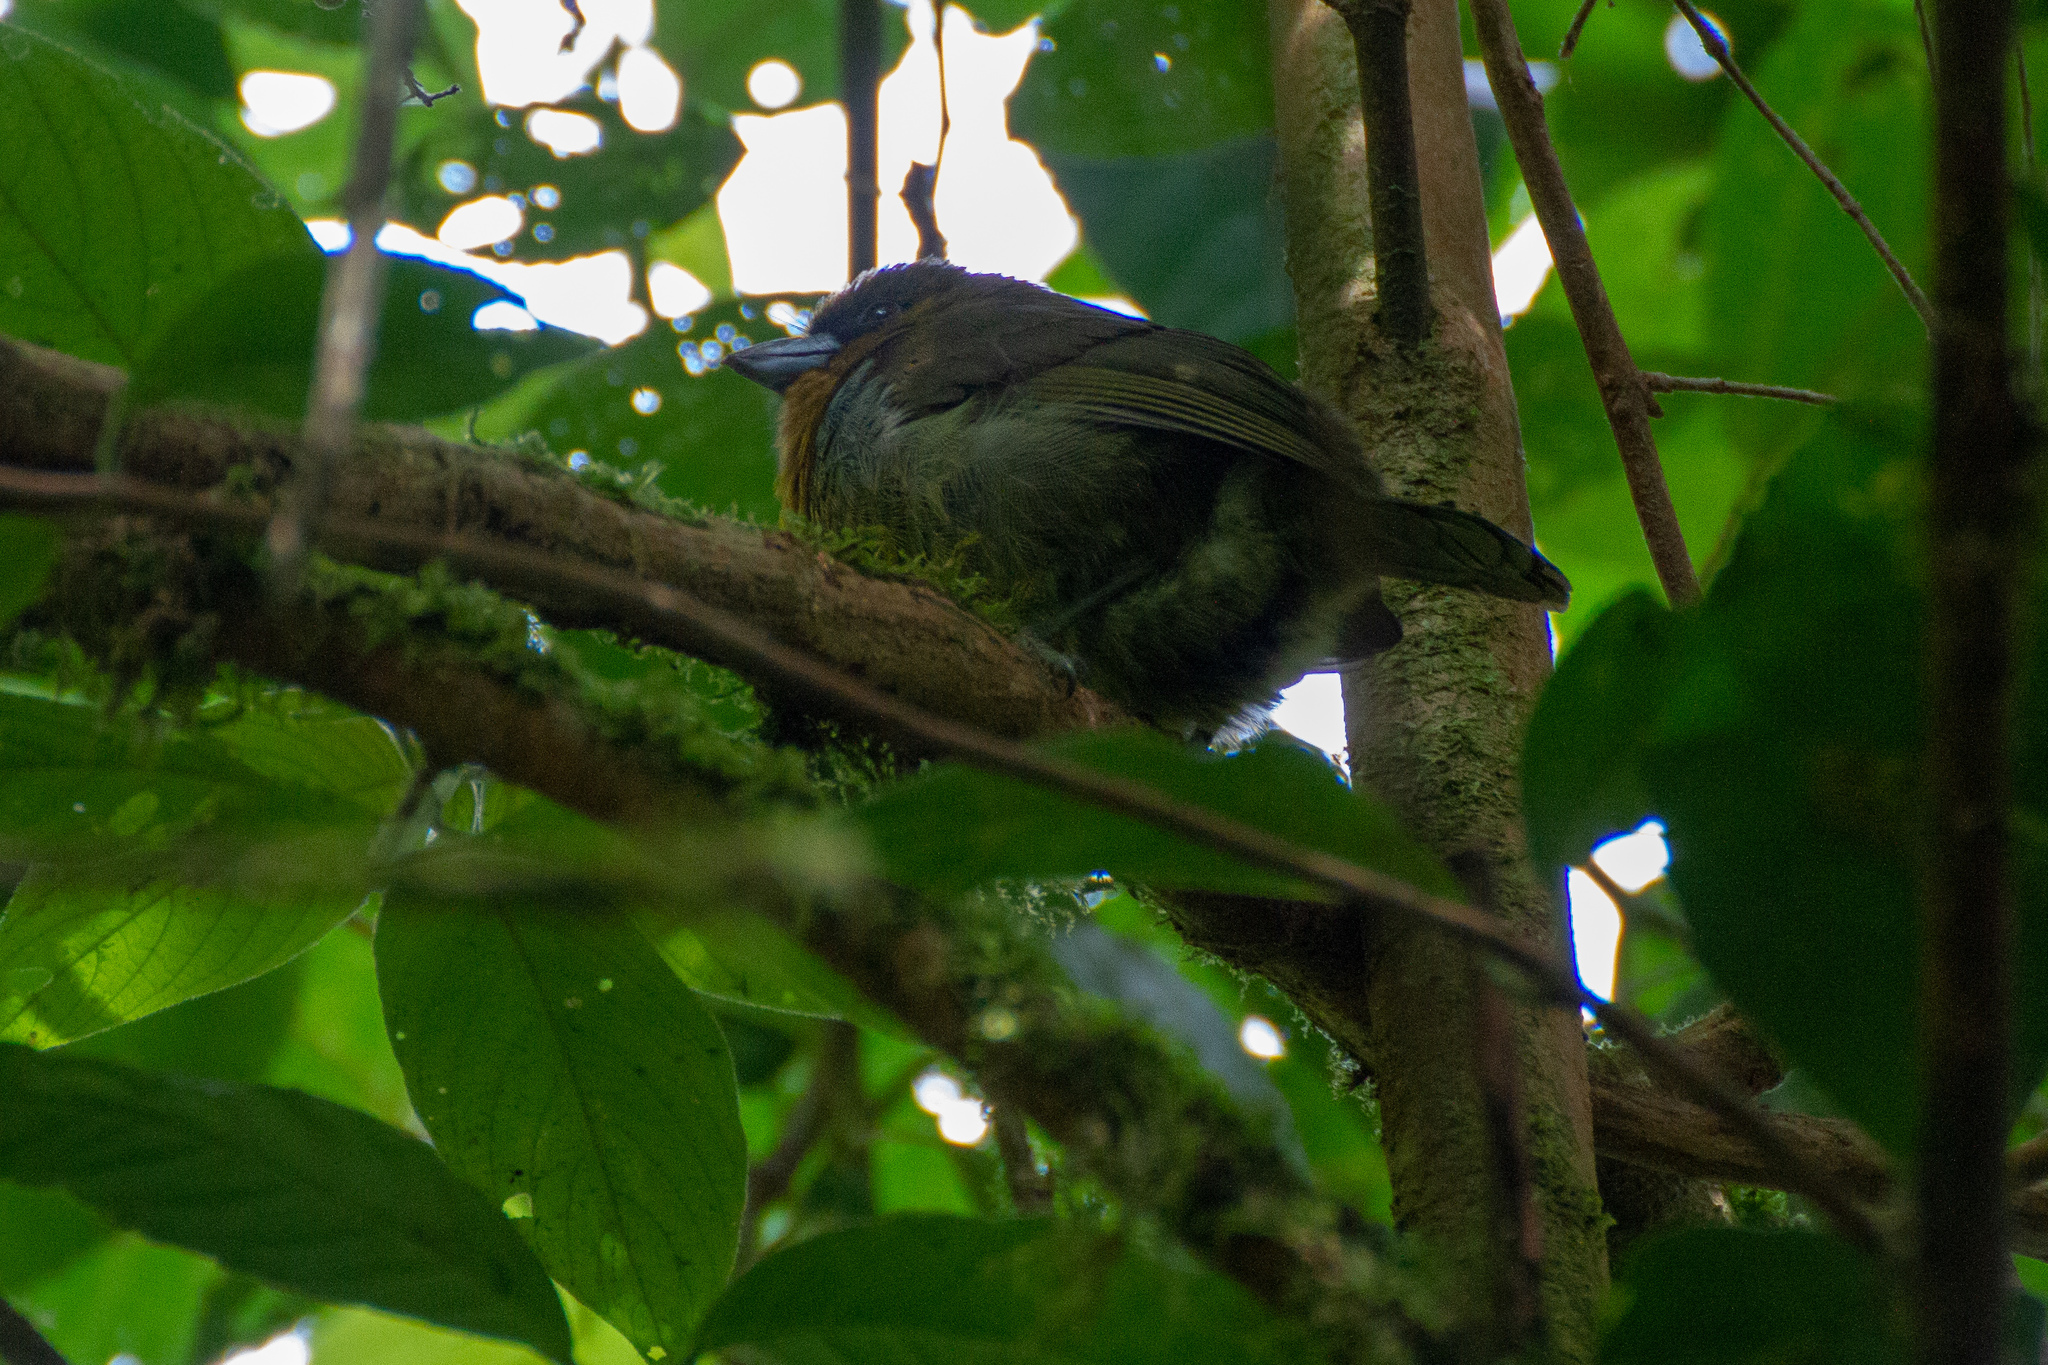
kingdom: Animalia
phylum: Chordata
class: Aves
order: Piciformes
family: Semnornithidae
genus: Semnornis
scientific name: Semnornis frantzii
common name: Prong-billed barbet
